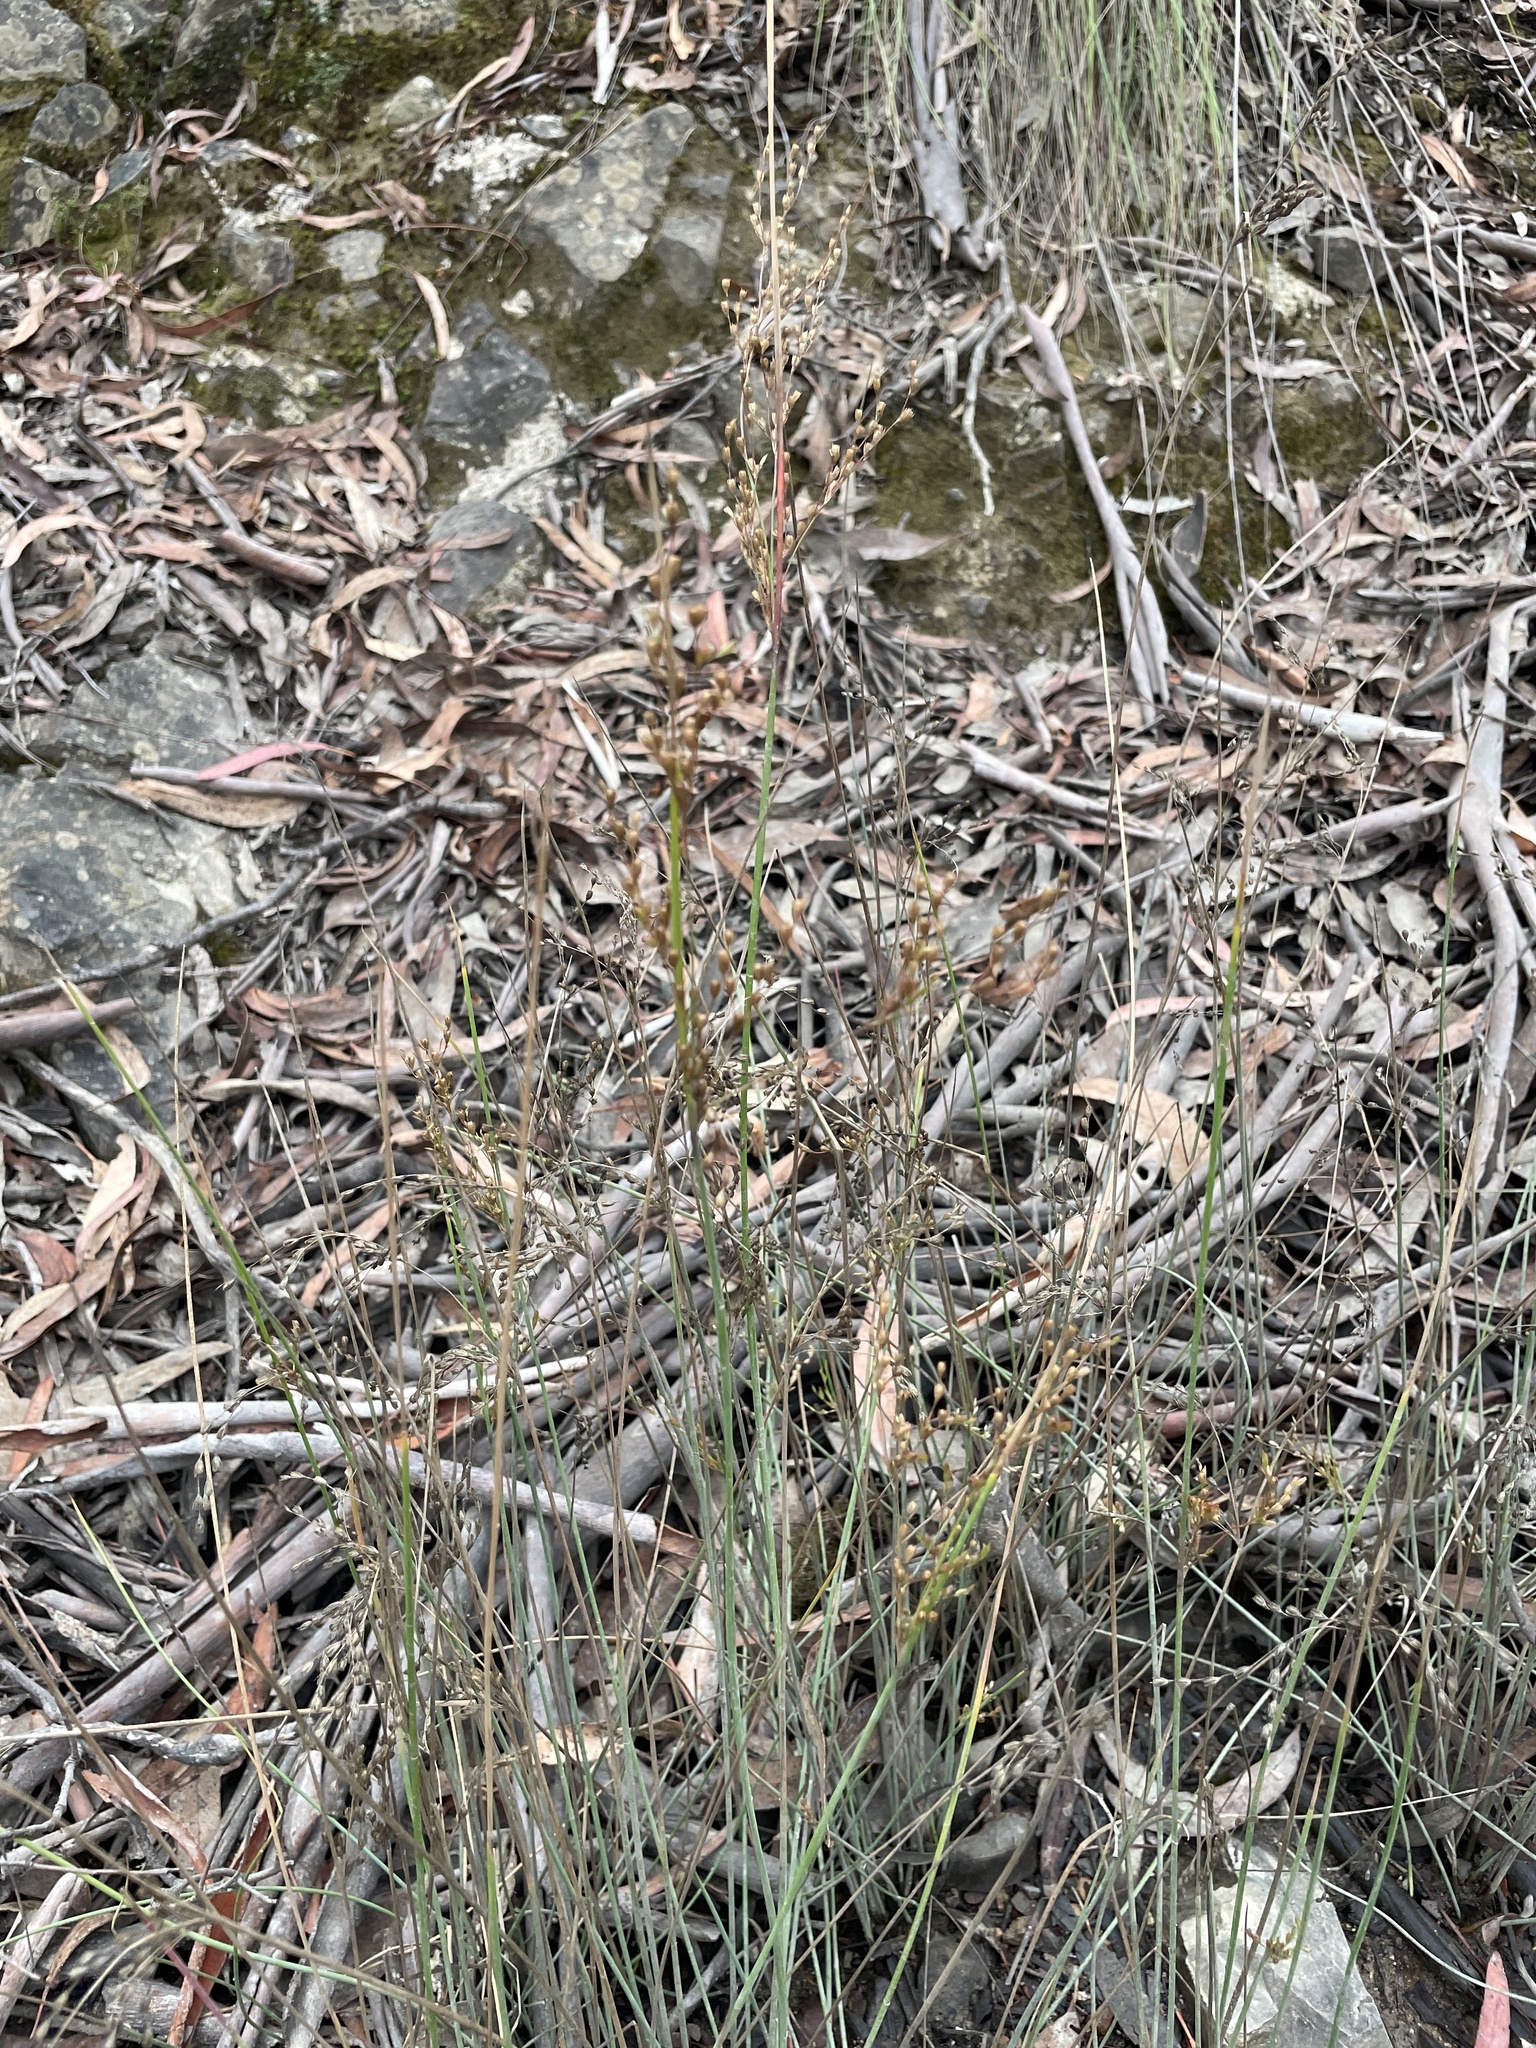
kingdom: Plantae
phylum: Tracheophyta
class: Liliopsida
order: Poales
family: Juncaceae
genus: Juncus
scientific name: Juncus remotiflorus
